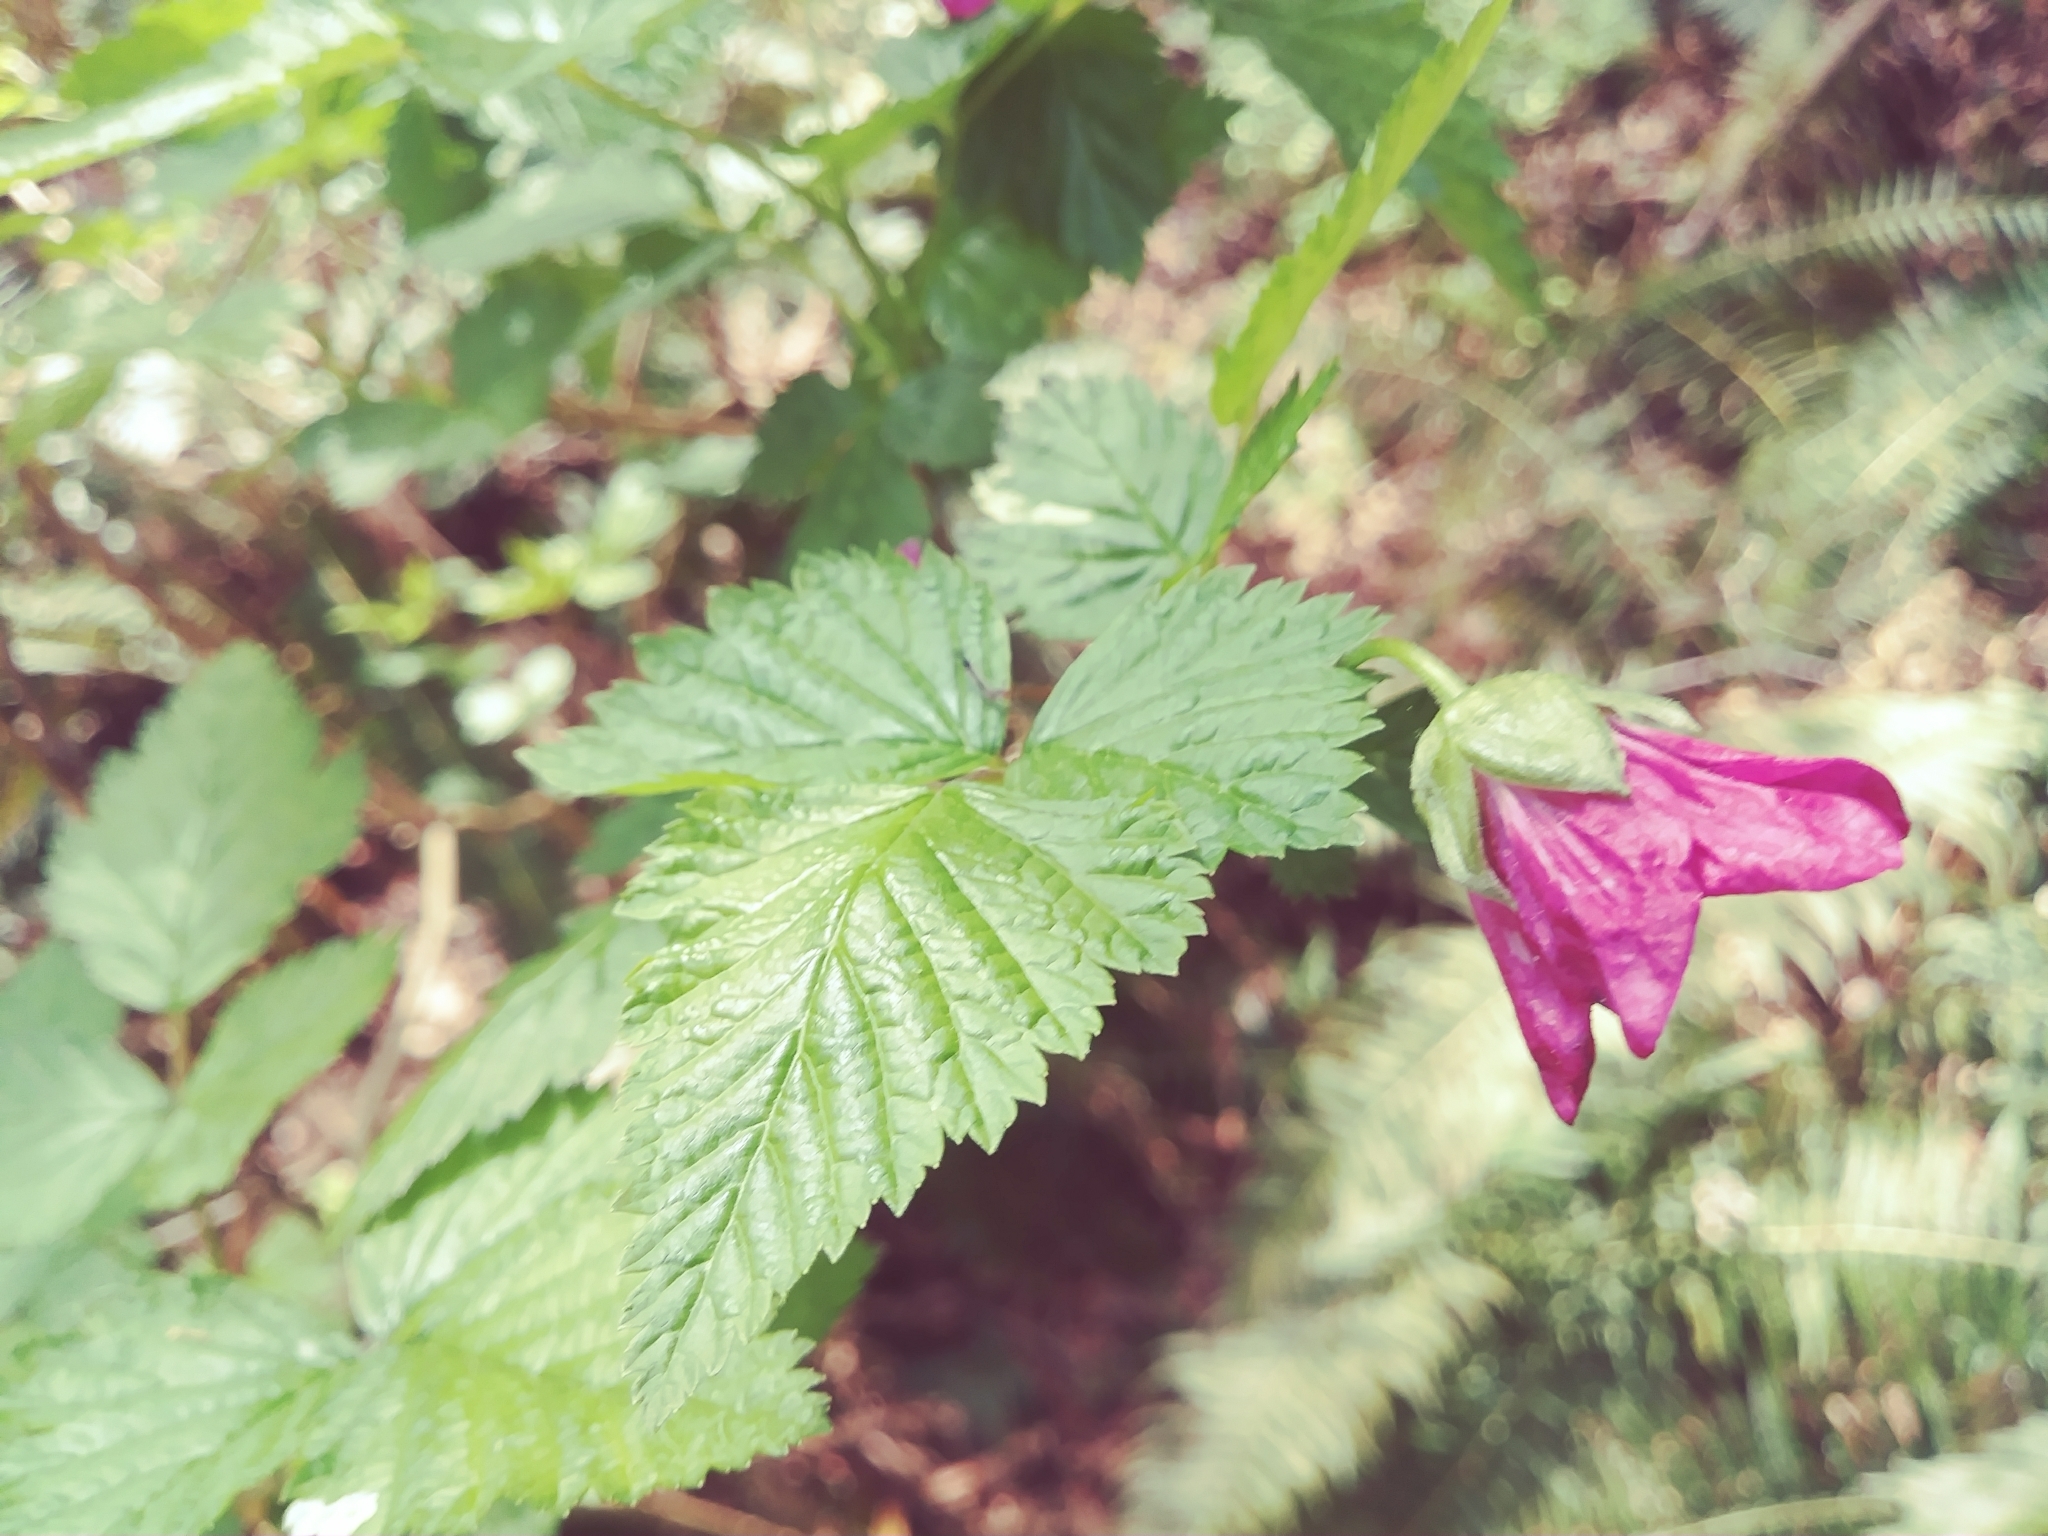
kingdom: Plantae
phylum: Tracheophyta
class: Magnoliopsida
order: Rosales
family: Rosaceae
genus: Rubus
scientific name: Rubus spectabilis
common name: Salmonberry
